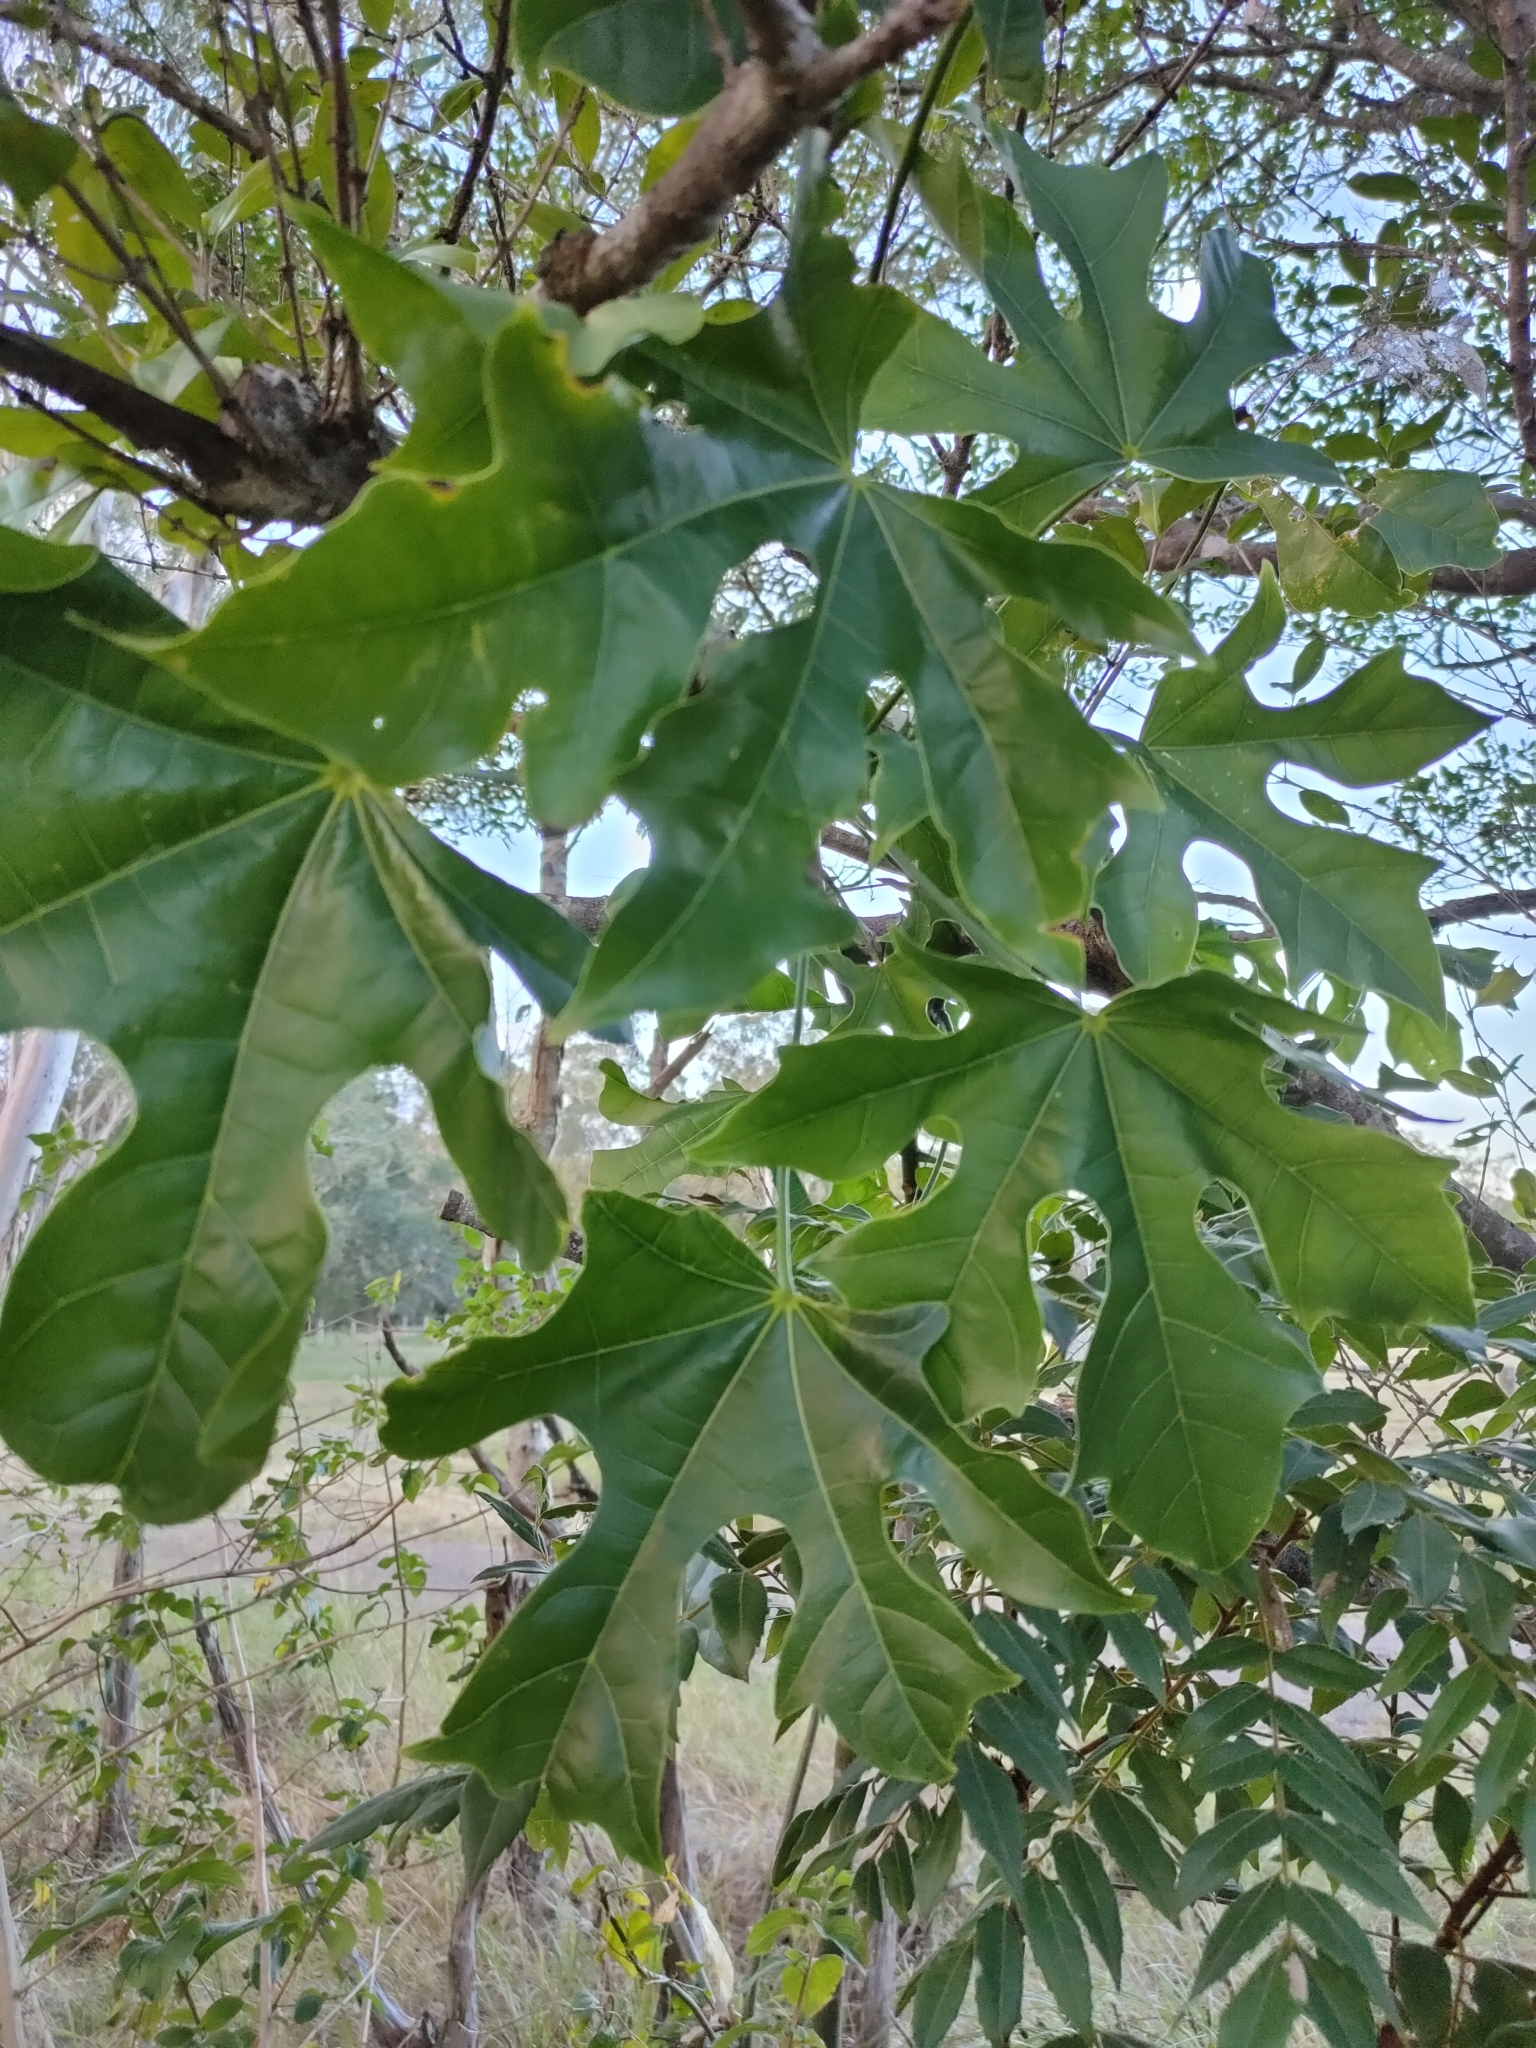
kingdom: Plantae
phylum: Tracheophyta
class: Magnoliopsida
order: Malvales
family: Malvaceae
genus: Brachychiton
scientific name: Brachychiton acerifolius
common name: Illawarra flame tree
